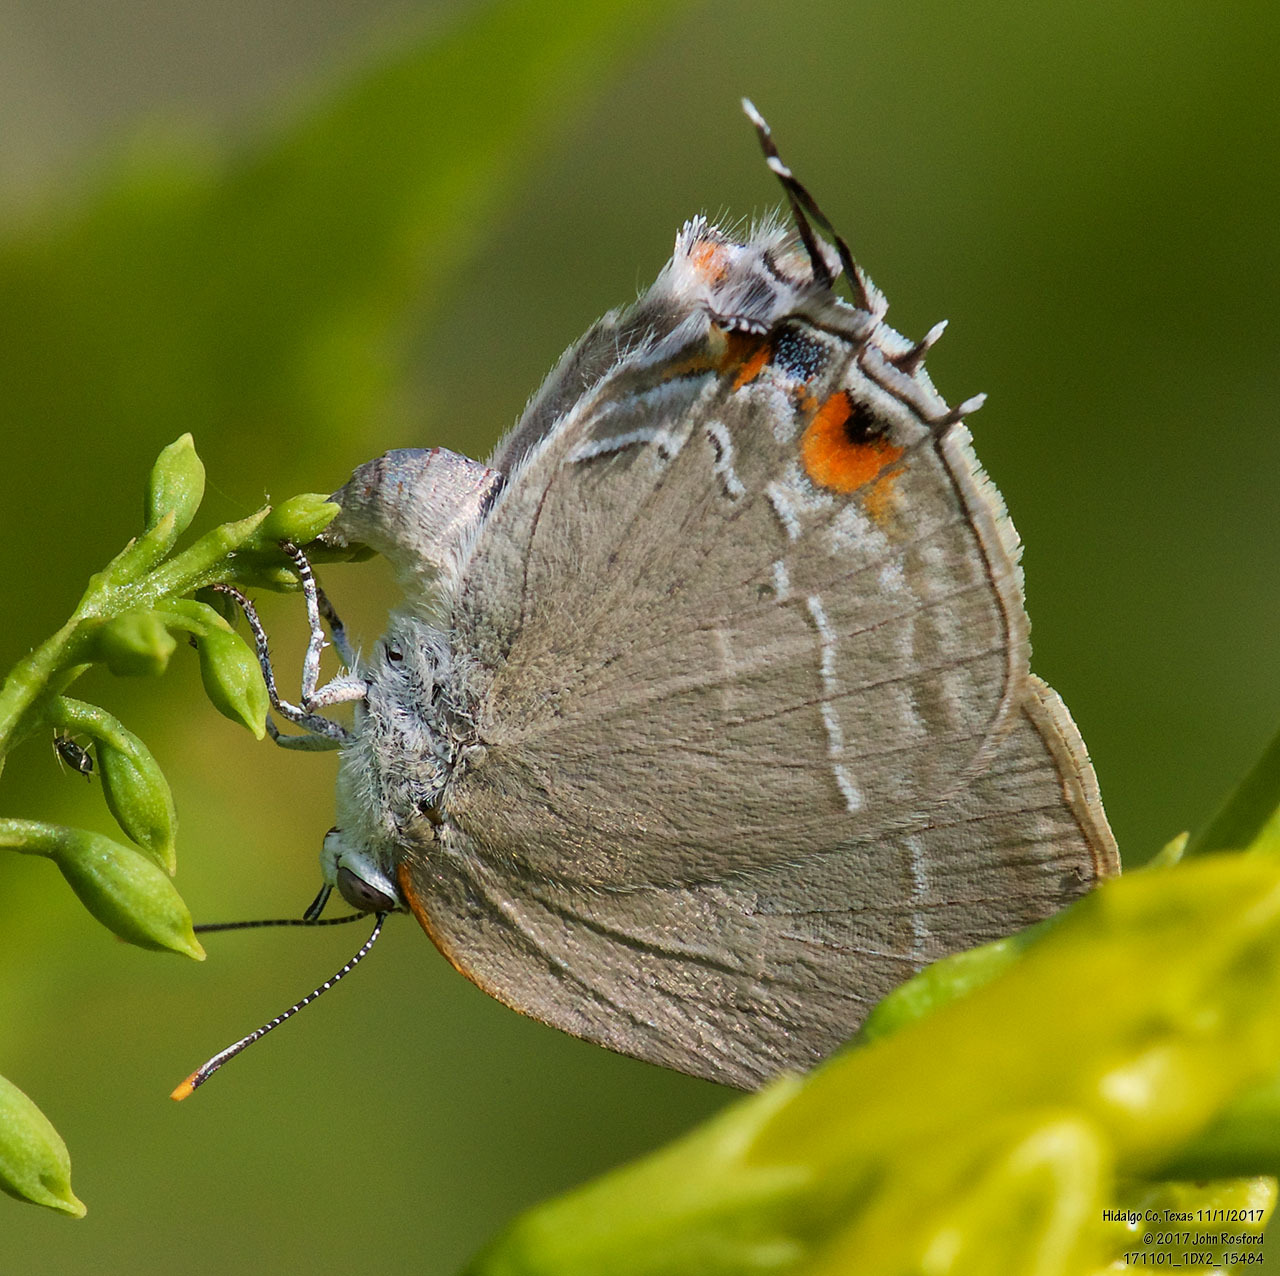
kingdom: Animalia
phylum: Arthropoda
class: Insecta
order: Lepidoptera
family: Lycaenidae
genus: Thecla
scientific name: Thecla marius
